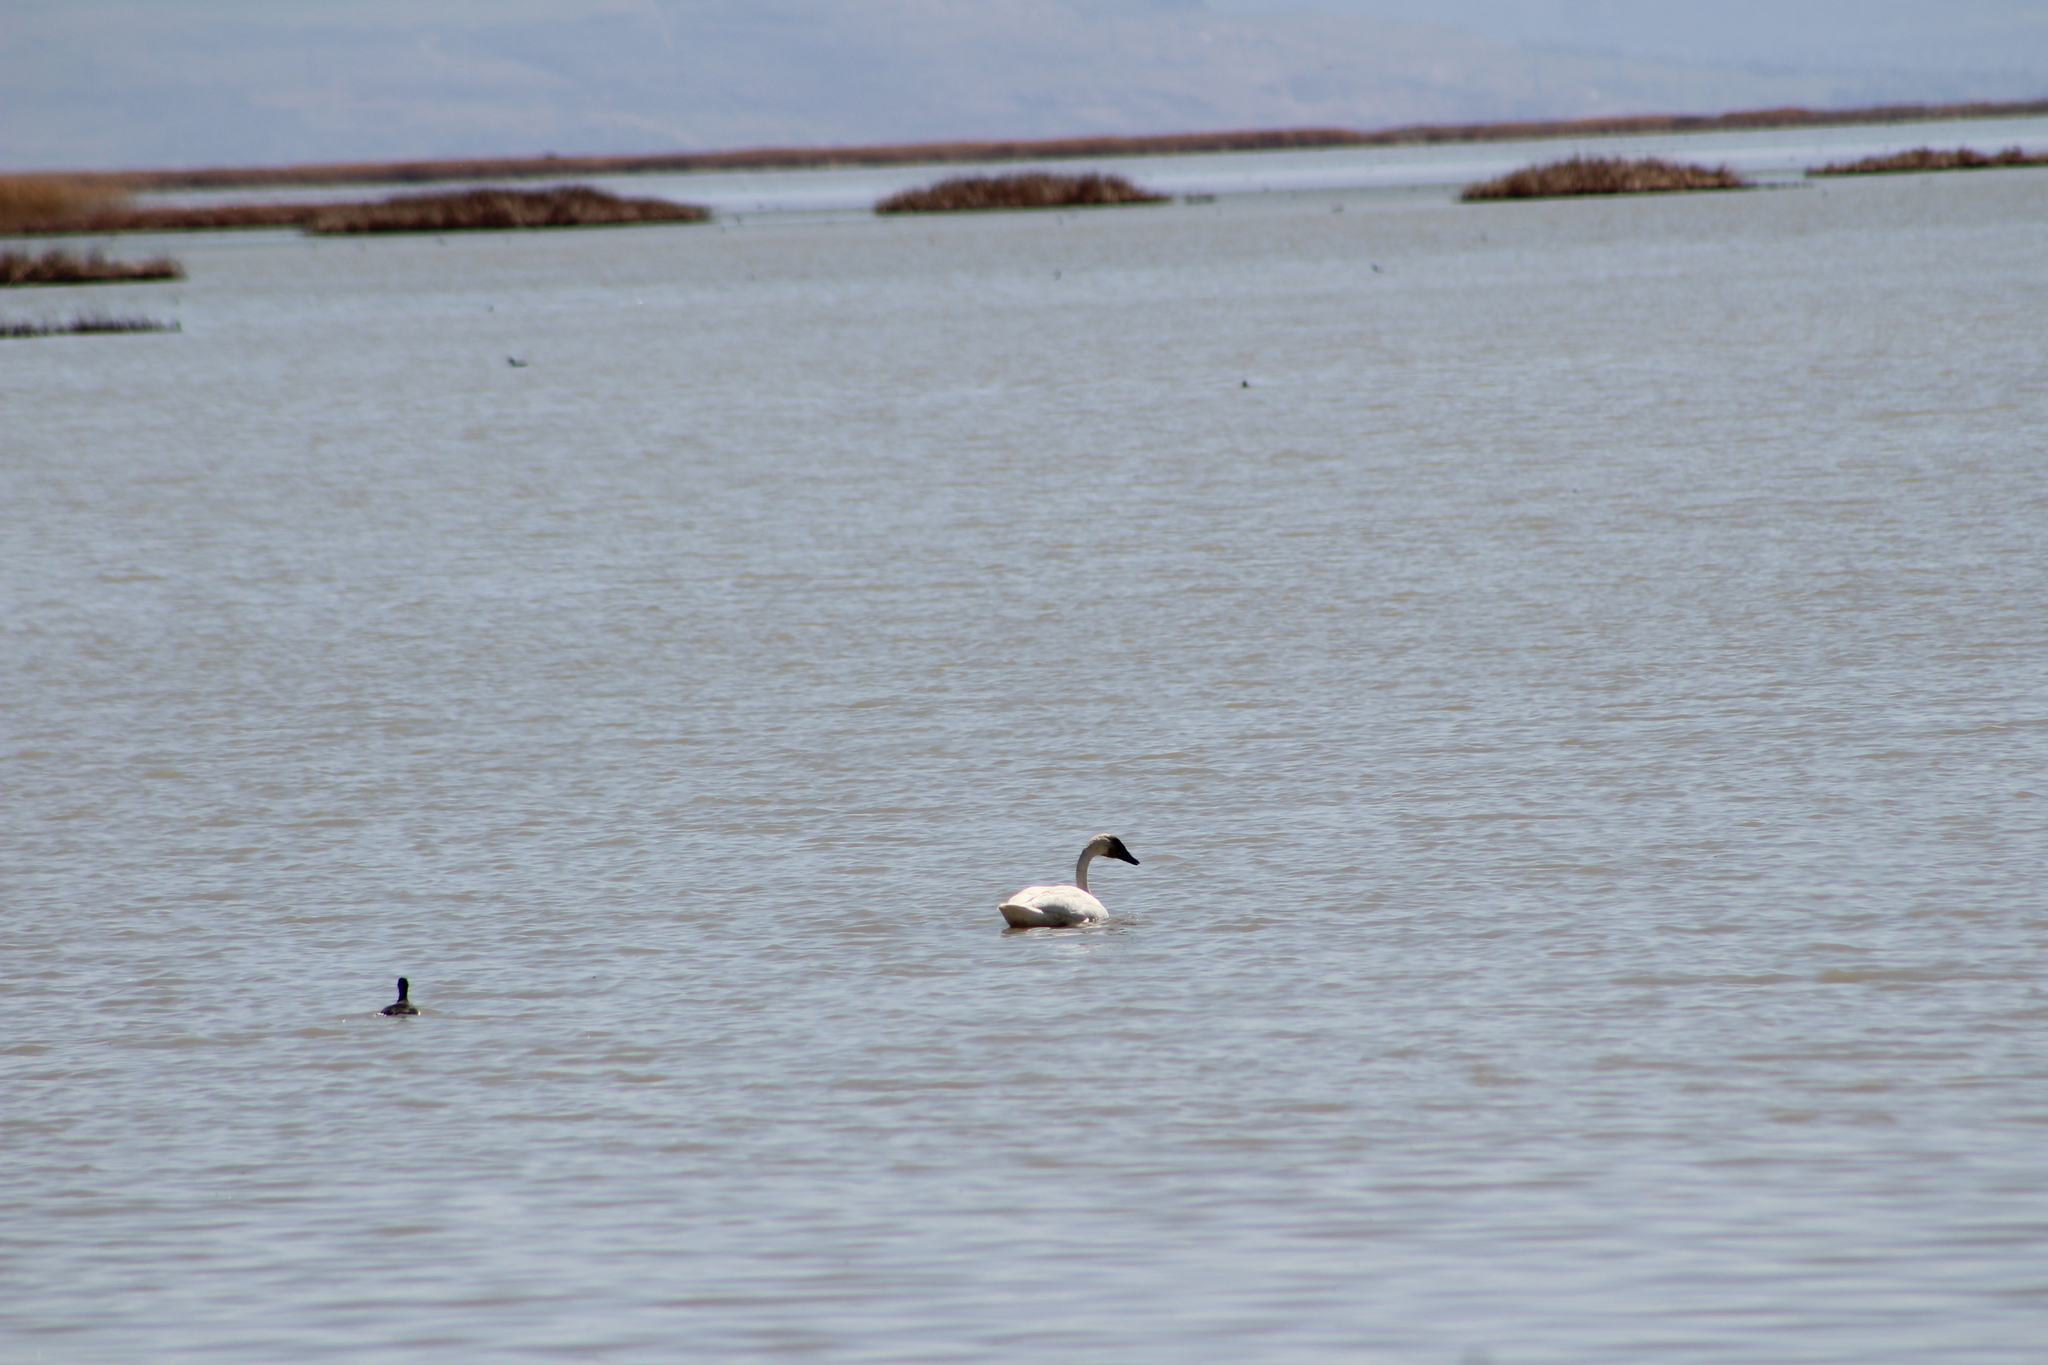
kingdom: Animalia
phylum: Chordata
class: Aves
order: Anseriformes
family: Anatidae
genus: Cygnus
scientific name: Cygnus columbianus
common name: Tundra swan
